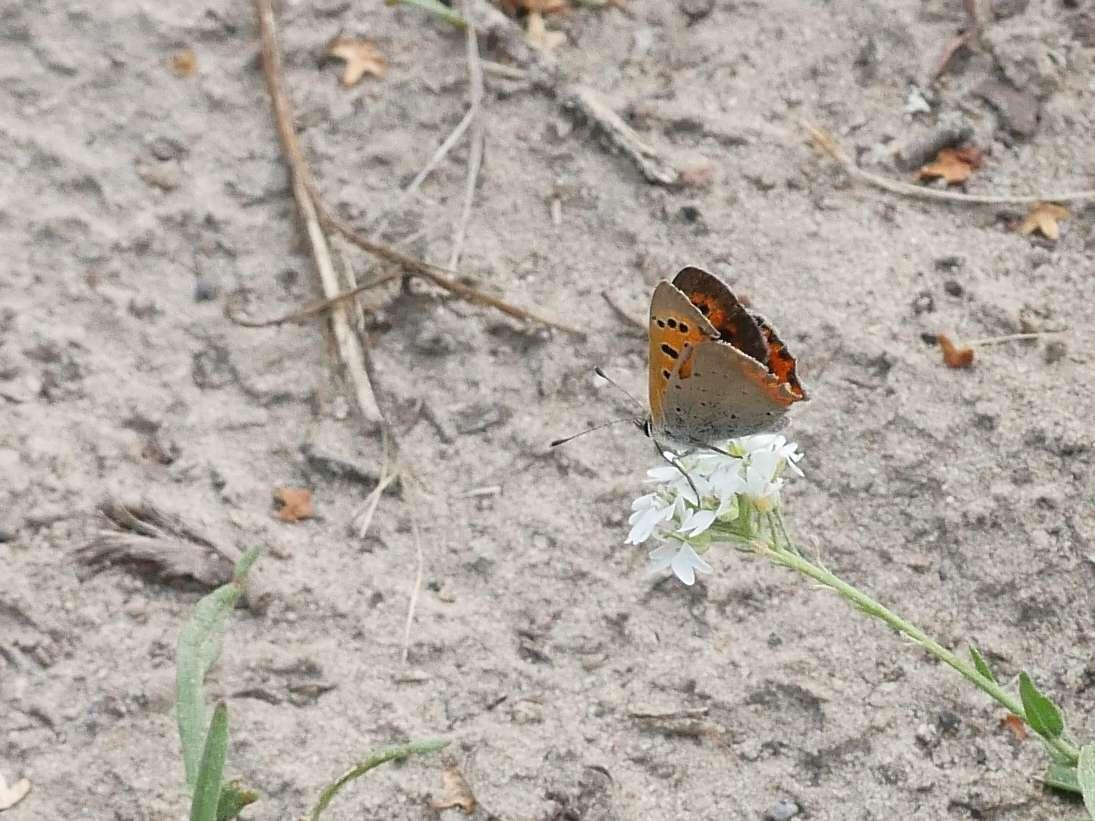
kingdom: Animalia
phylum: Arthropoda
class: Insecta
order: Lepidoptera
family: Lycaenidae
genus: Lycaena
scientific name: Lycaena phlaeas
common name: Small copper
